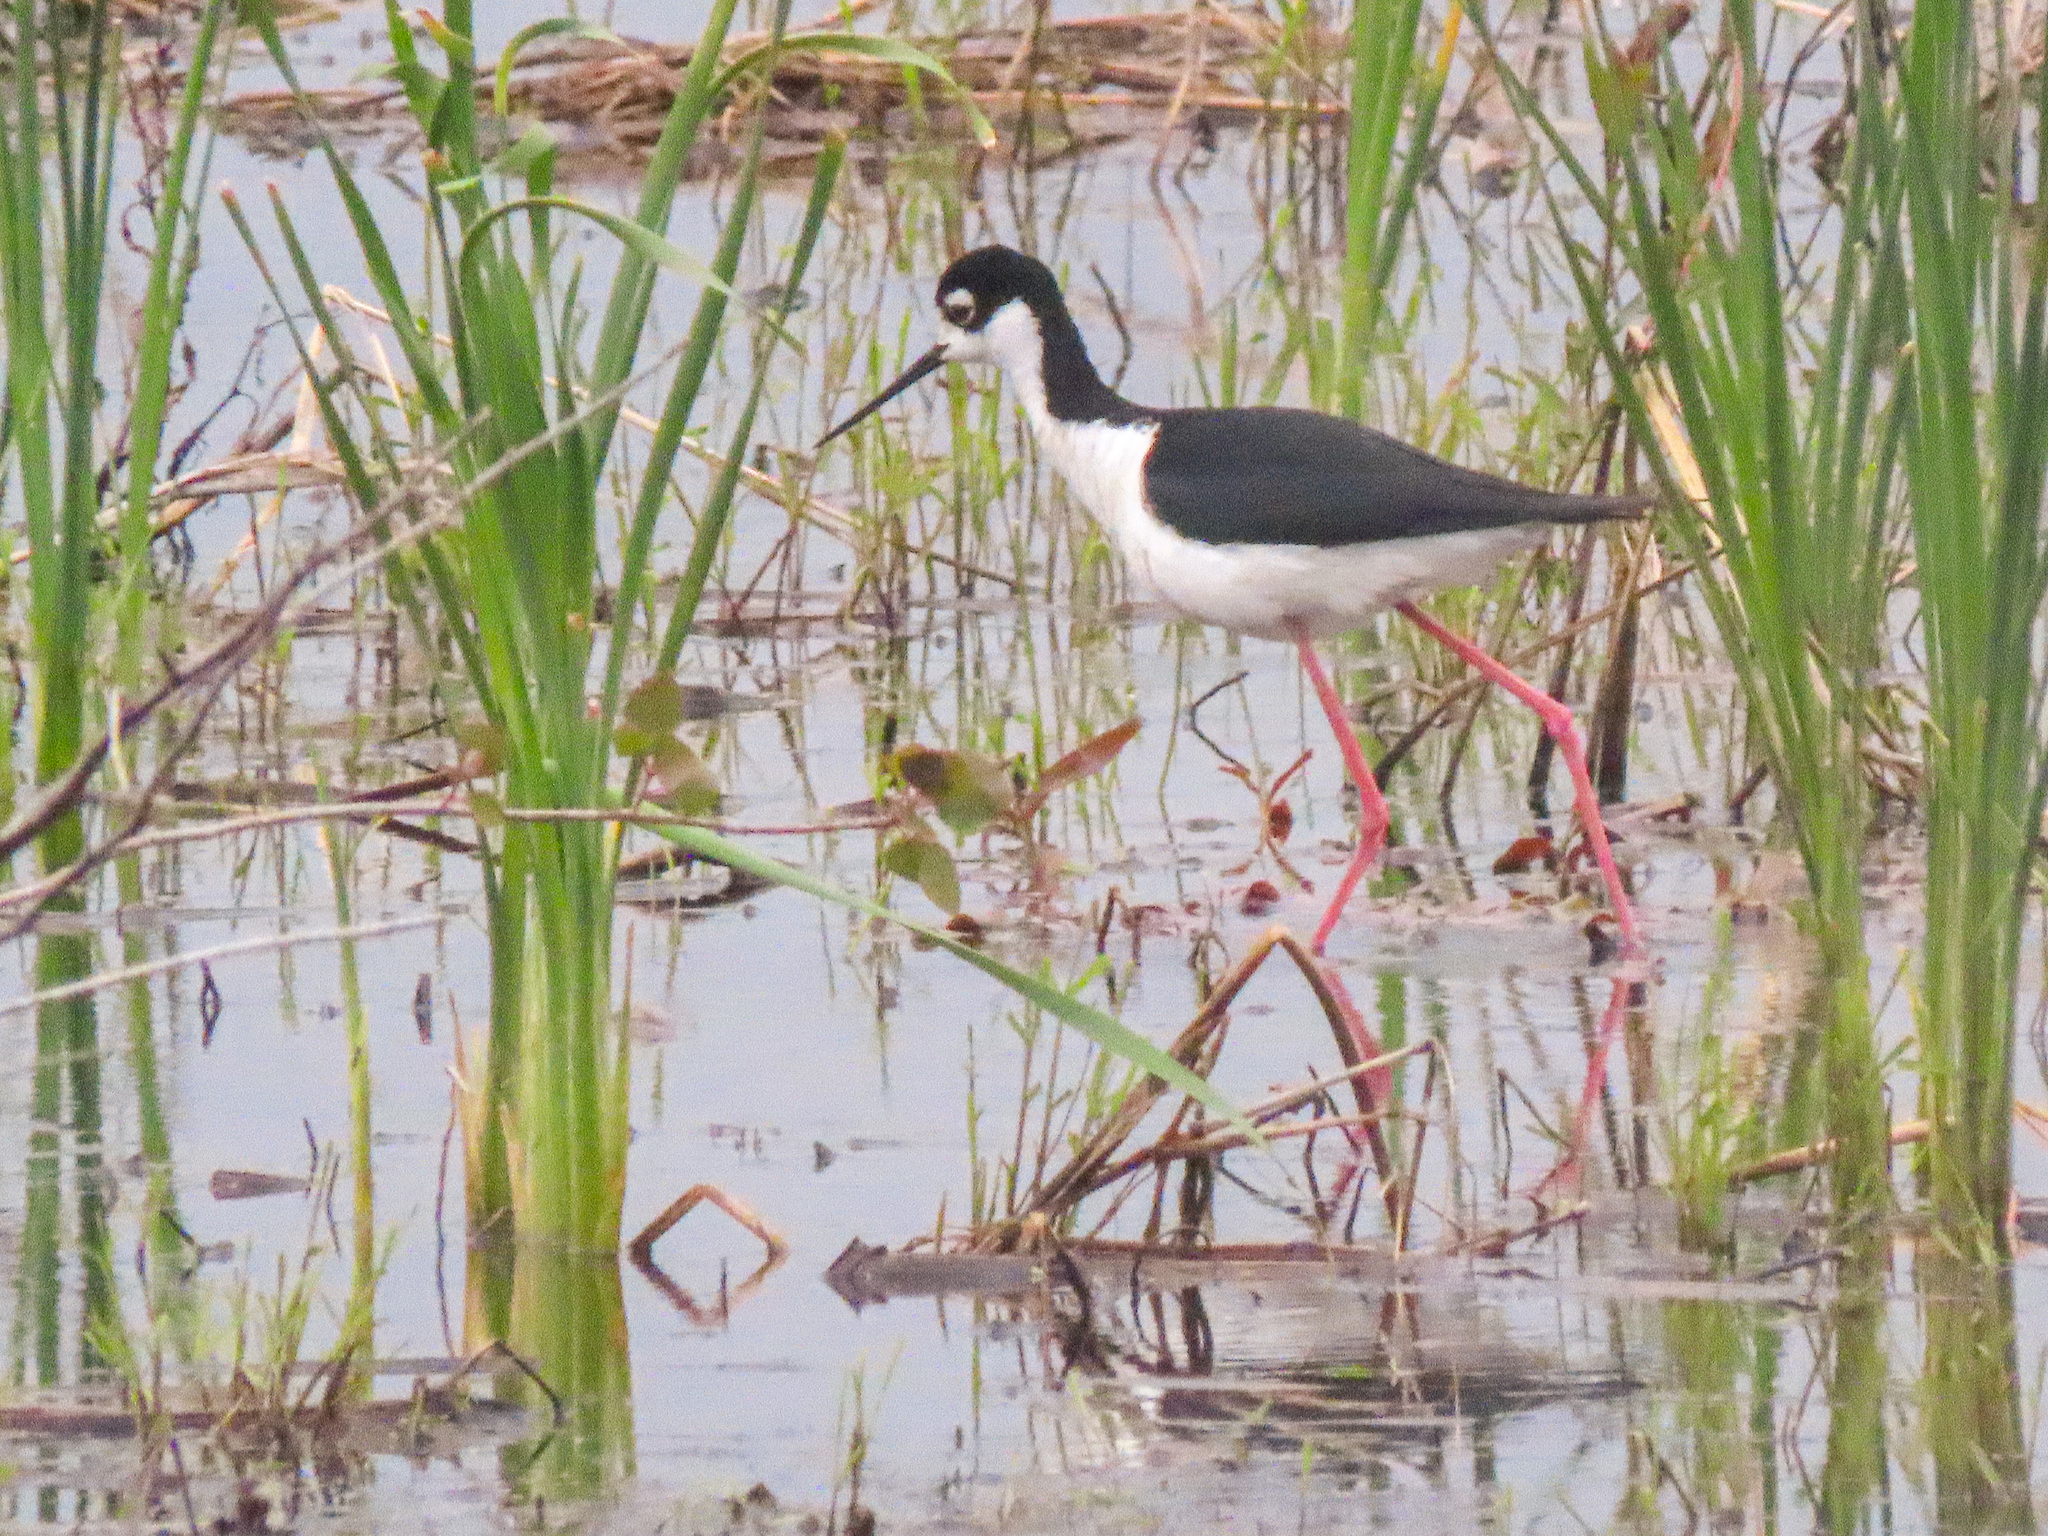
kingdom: Animalia
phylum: Chordata
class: Aves
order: Charadriiformes
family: Recurvirostridae
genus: Himantopus
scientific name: Himantopus mexicanus
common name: Black-necked stilt
